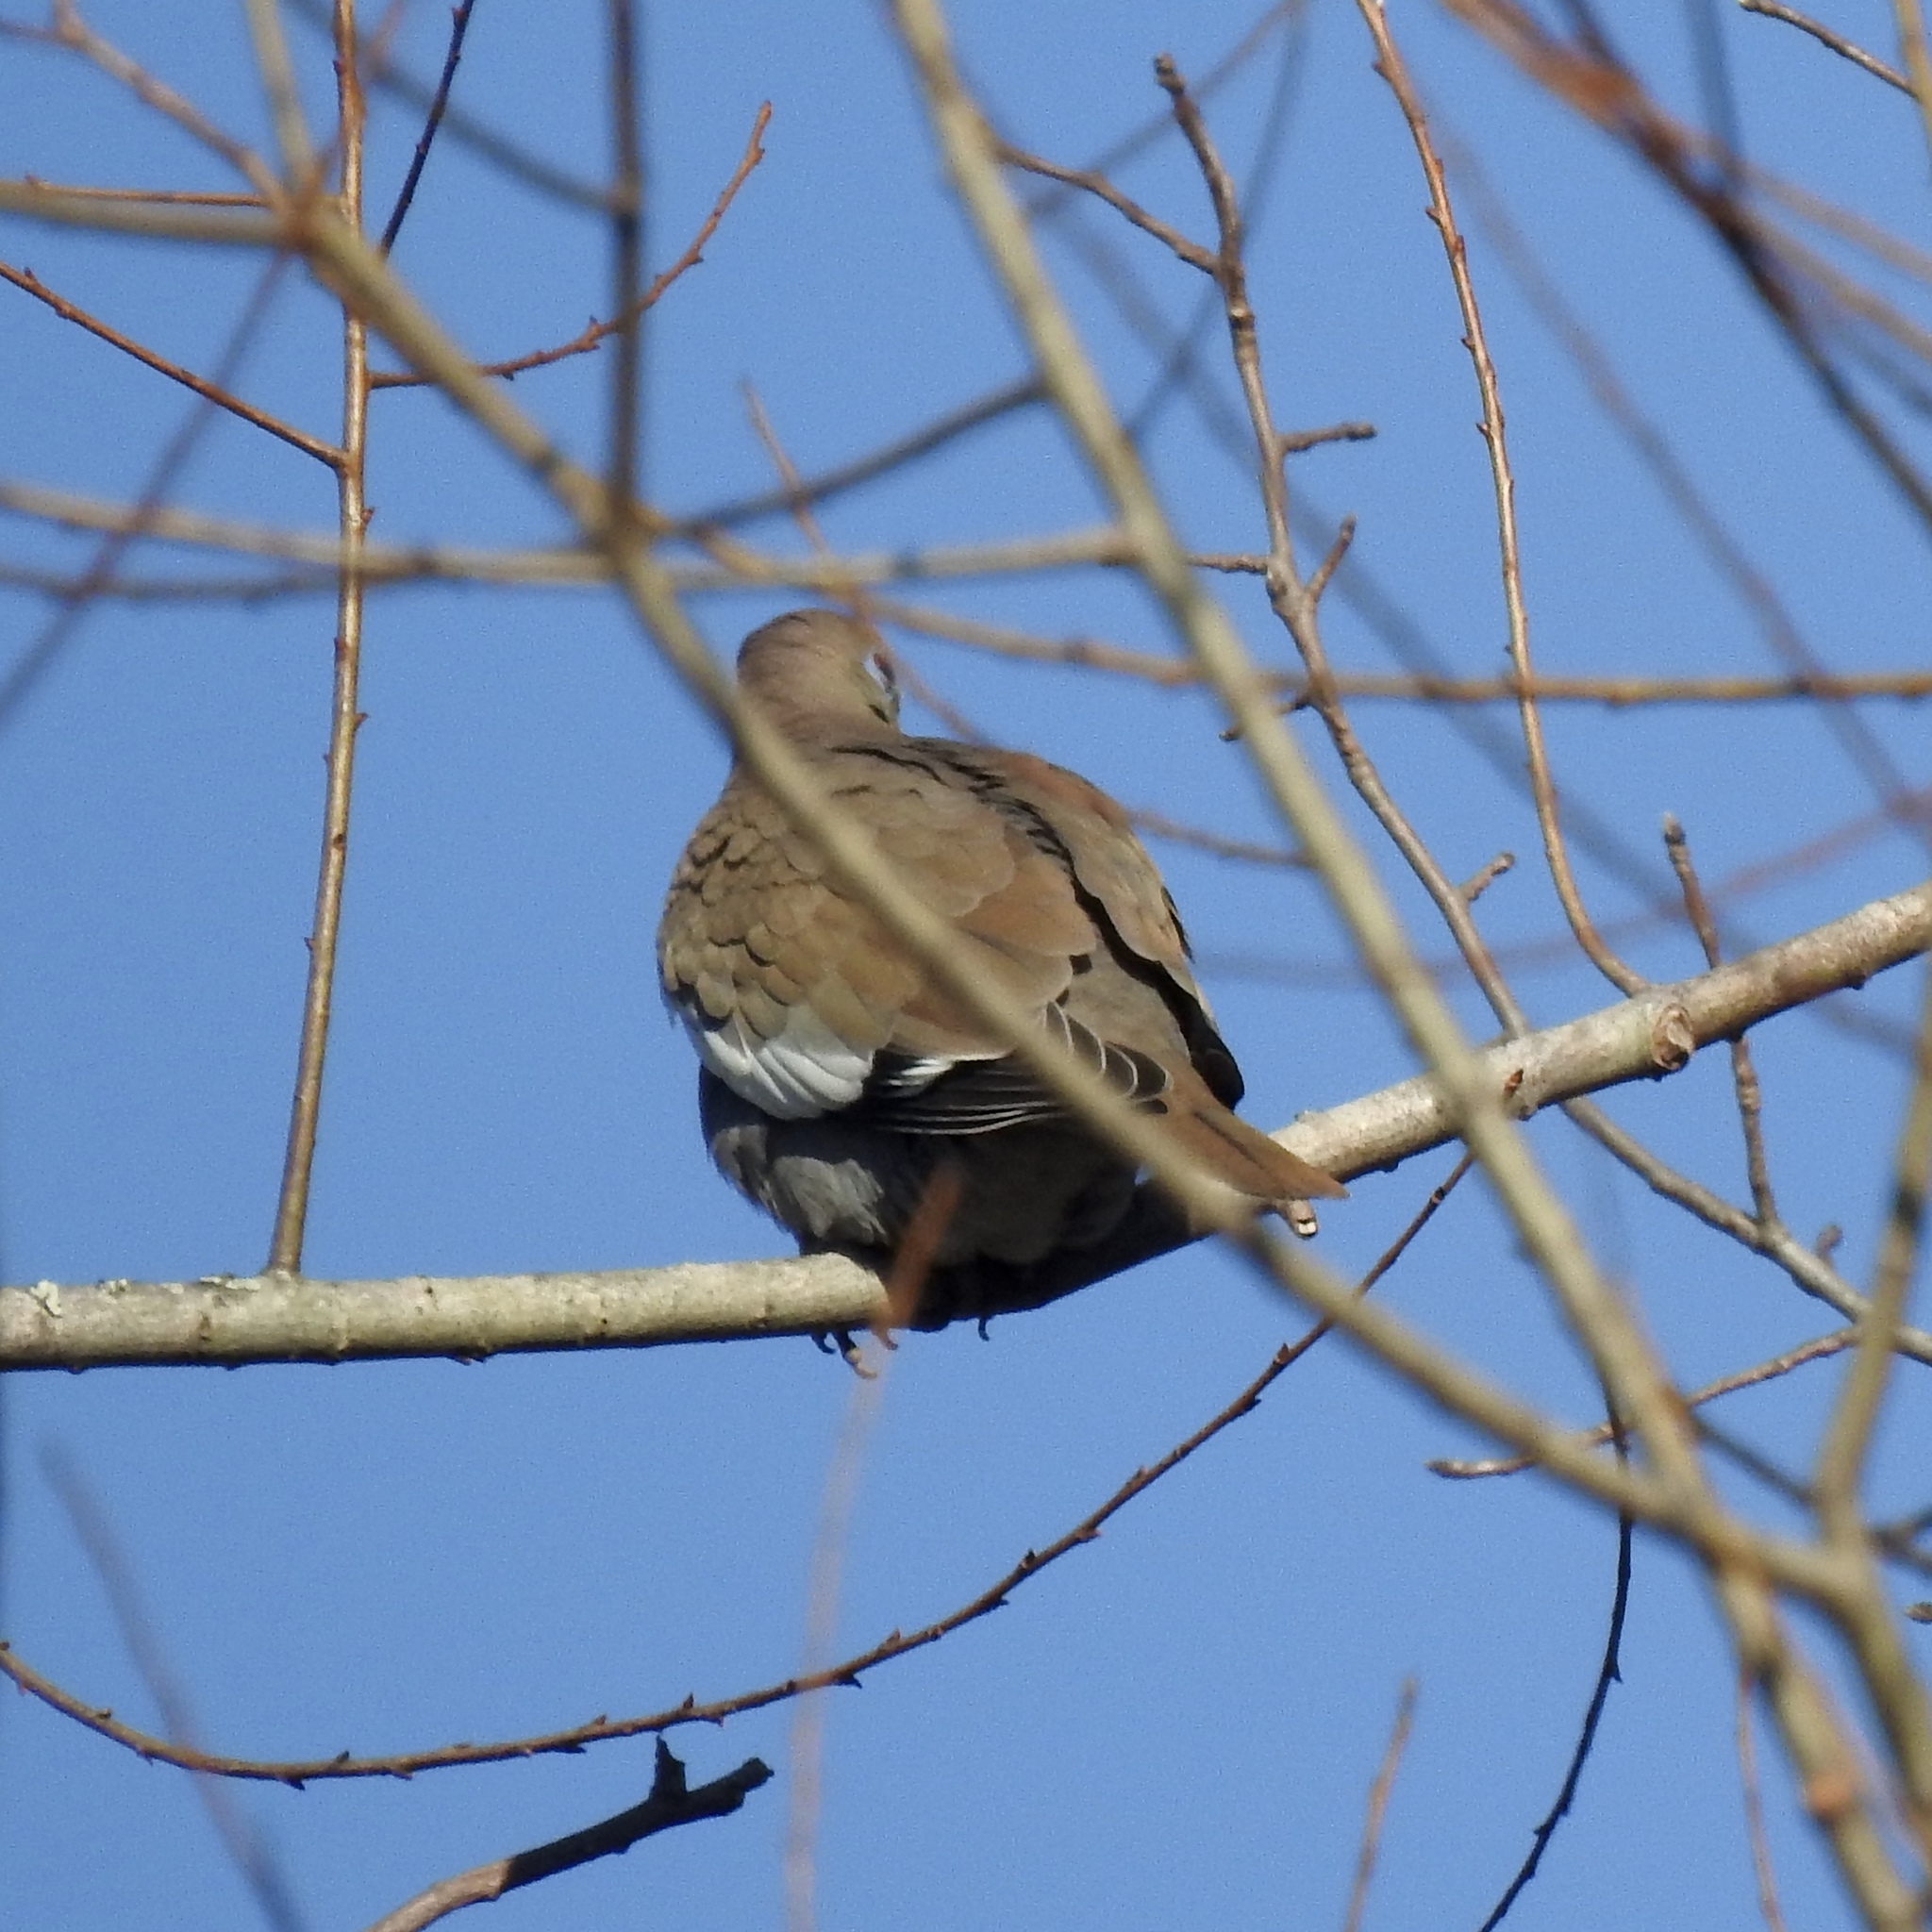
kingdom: Animalia
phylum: Chordata
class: Aves
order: Columbiformes
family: Columbidae
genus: Zenaida
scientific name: Zenaida asiatica
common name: White-winged dove
